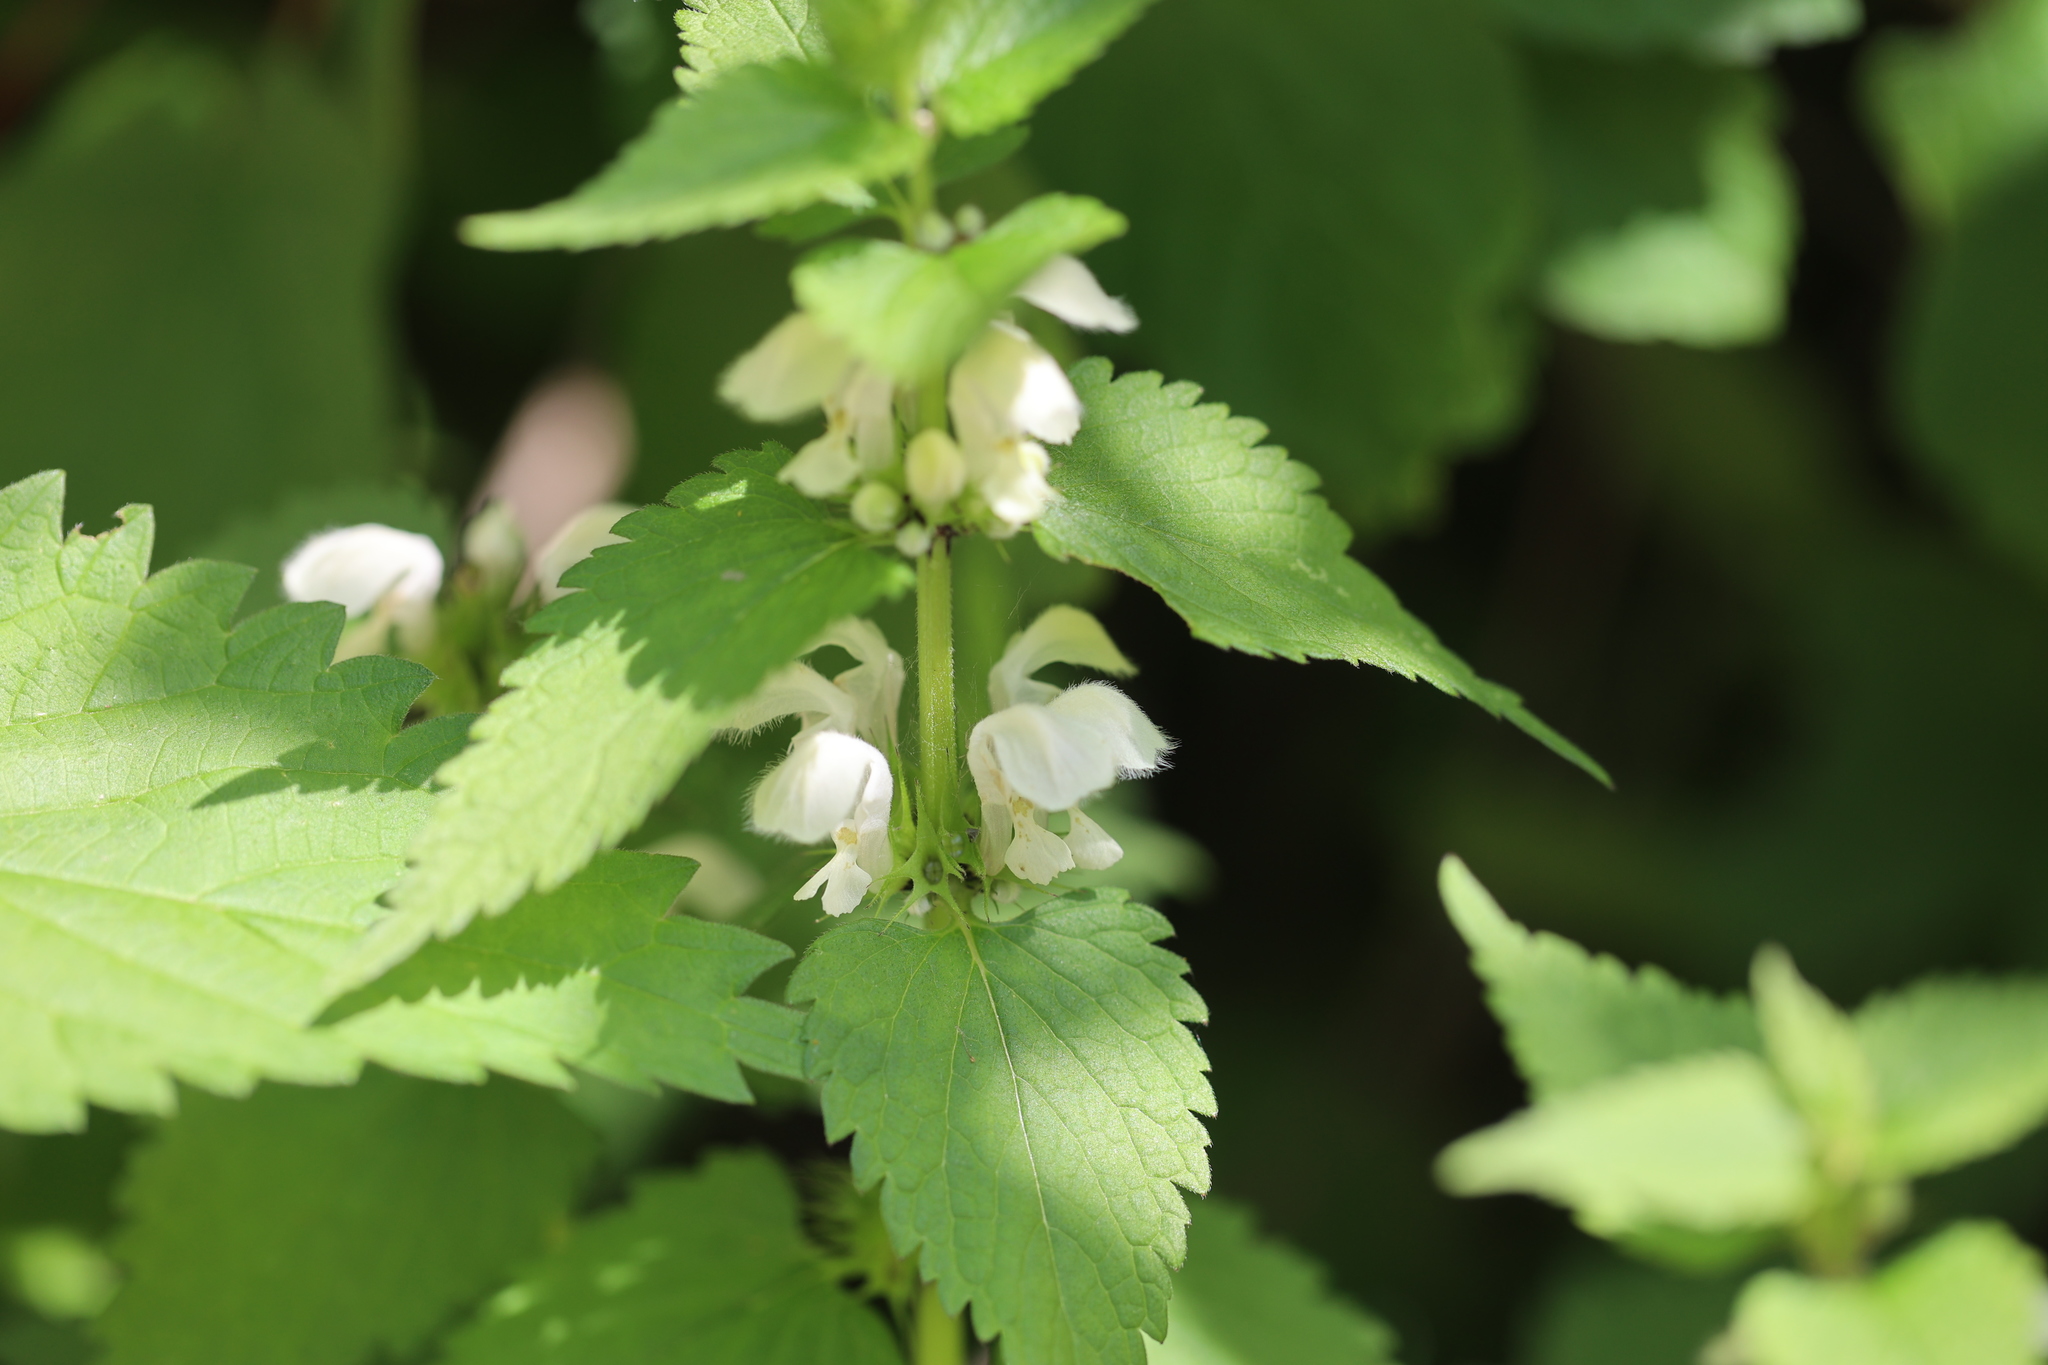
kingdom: Plantae
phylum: Tracheophyta
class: Magnoliopsida
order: Lamiales
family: Lamiaceae
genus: Lamium
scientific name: Lamium album
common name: White dead-nettle
